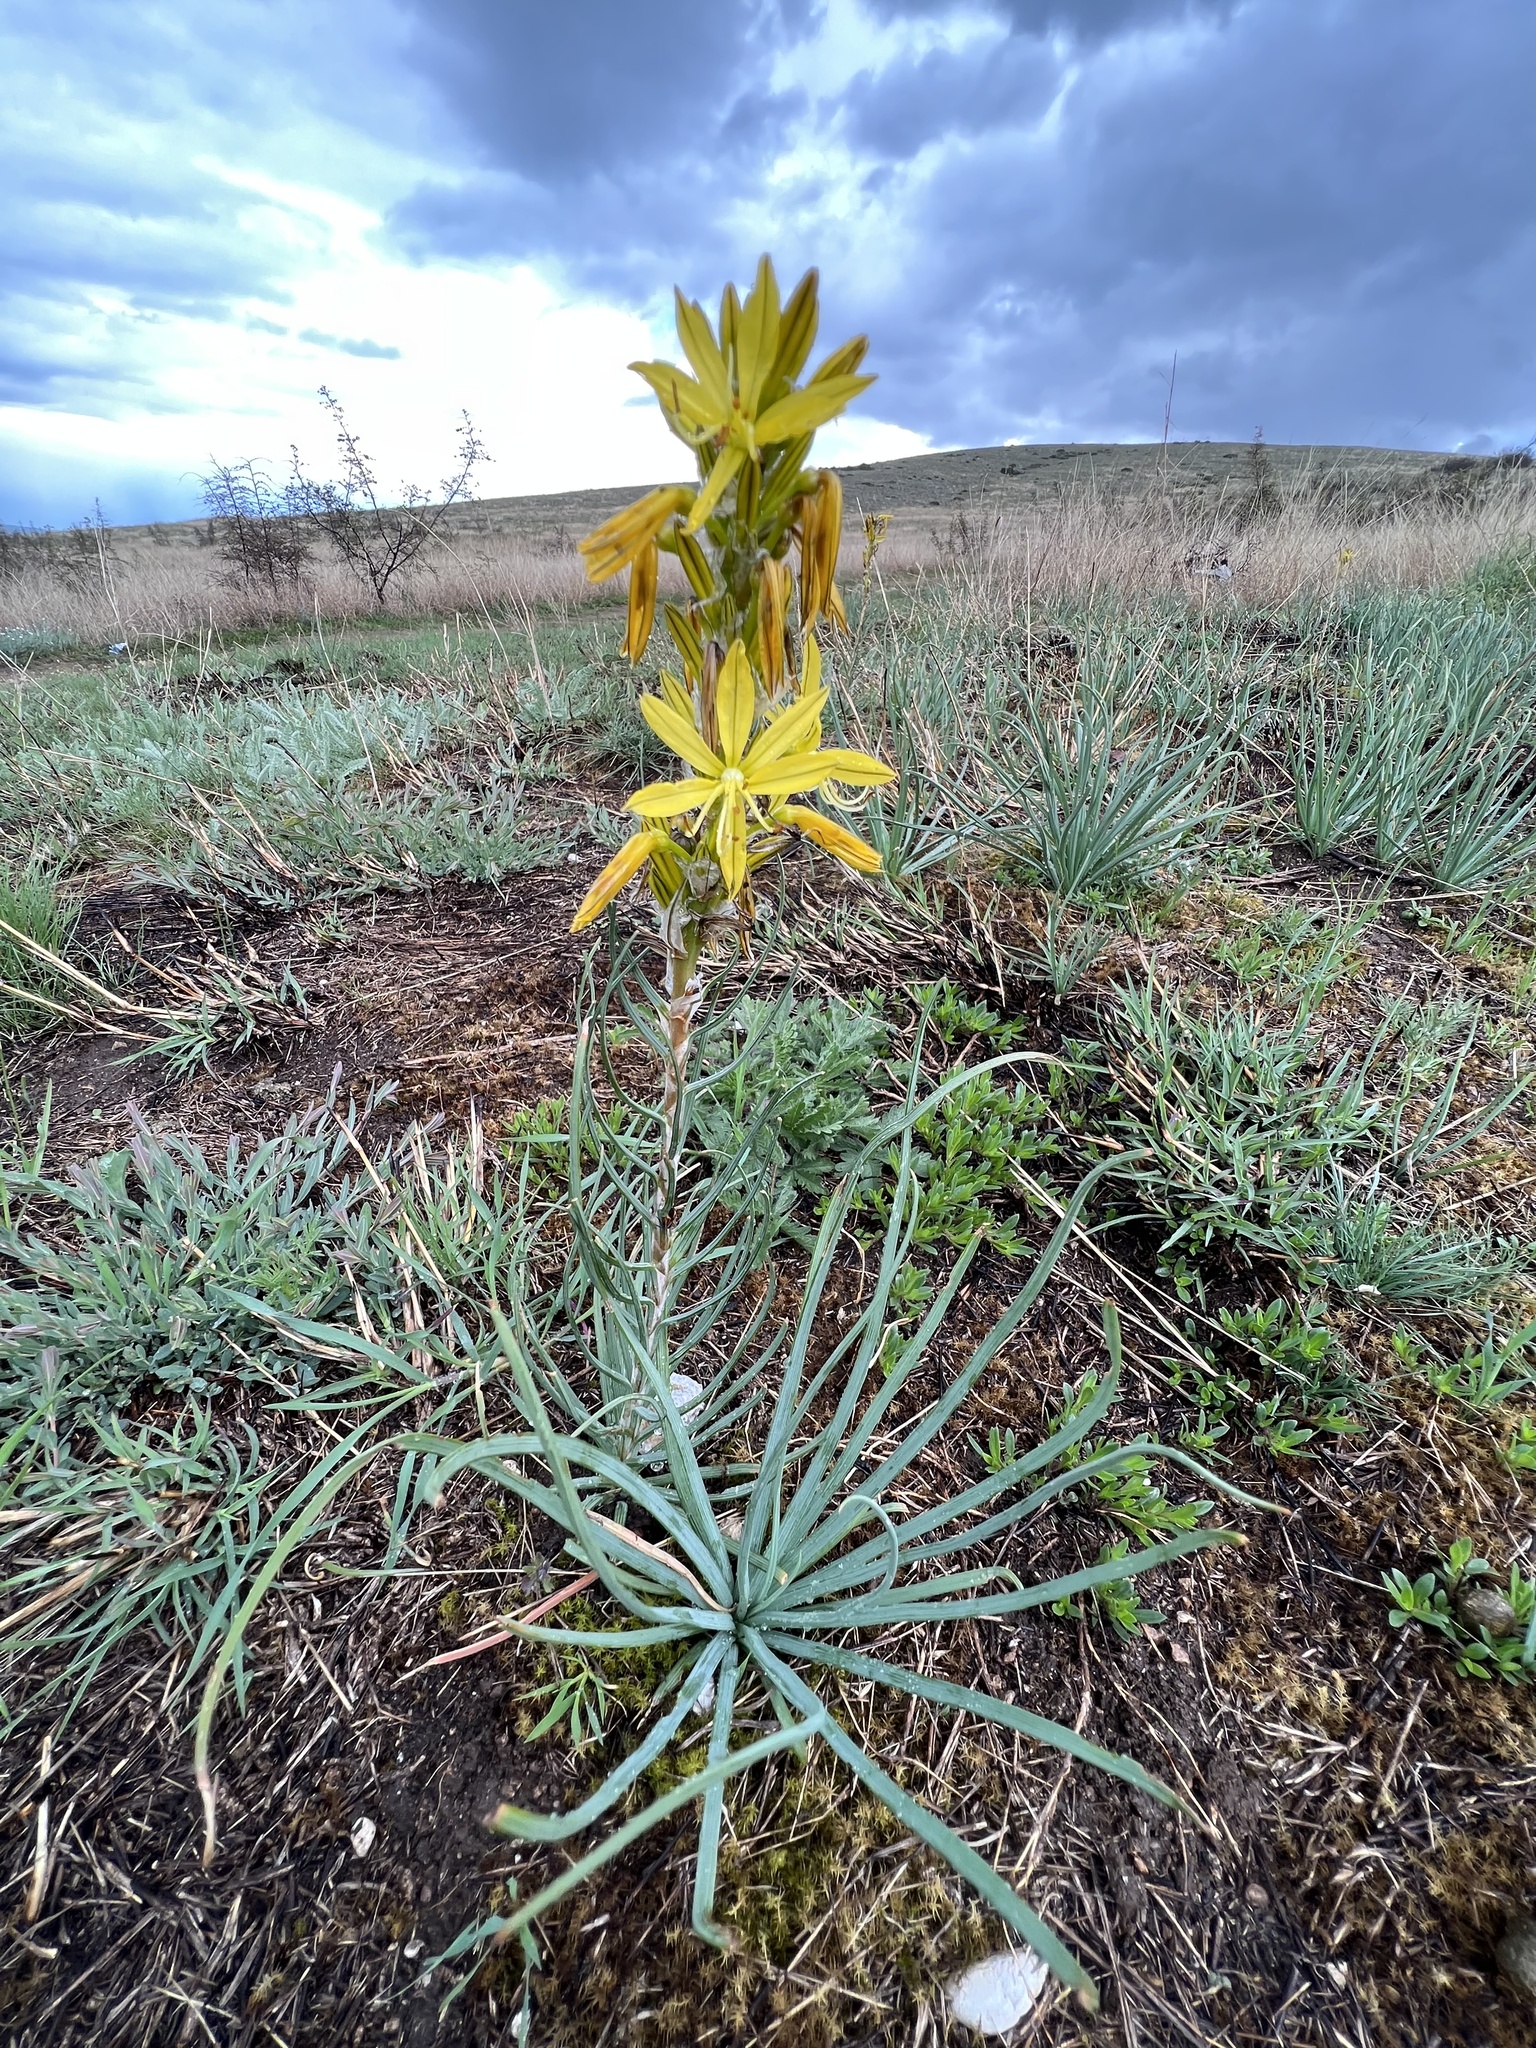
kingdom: Plantae
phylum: Tracheophyta
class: Liliopsida
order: Asparagales
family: Asphodelaceae
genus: Asphodeline
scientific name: Asphodeline lutea
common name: Yellow asphodel
